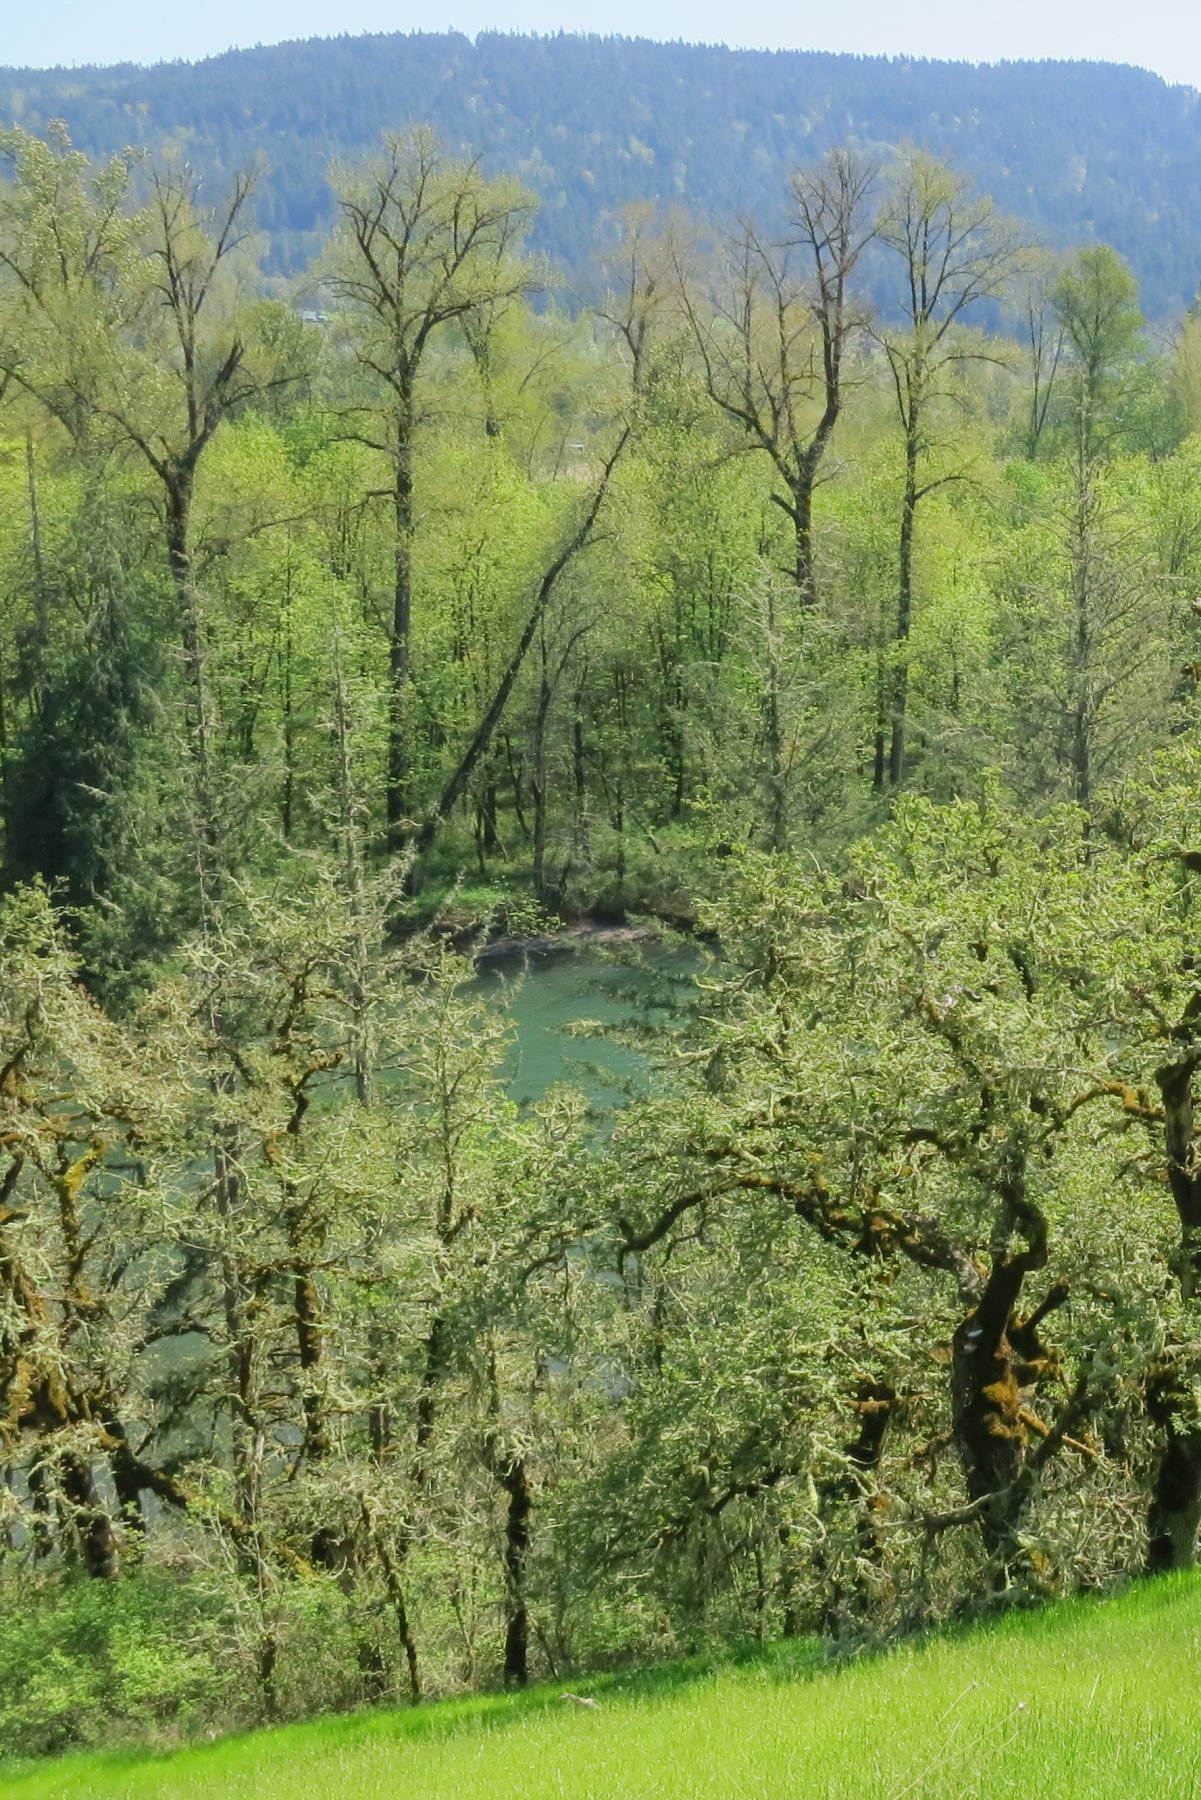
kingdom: Plantae
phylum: Tracheophyta
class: Magnoliopsida
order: Malpighiales
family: Salicaceae
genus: Populus
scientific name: Populus trichocarpa
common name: Black cottonwood
